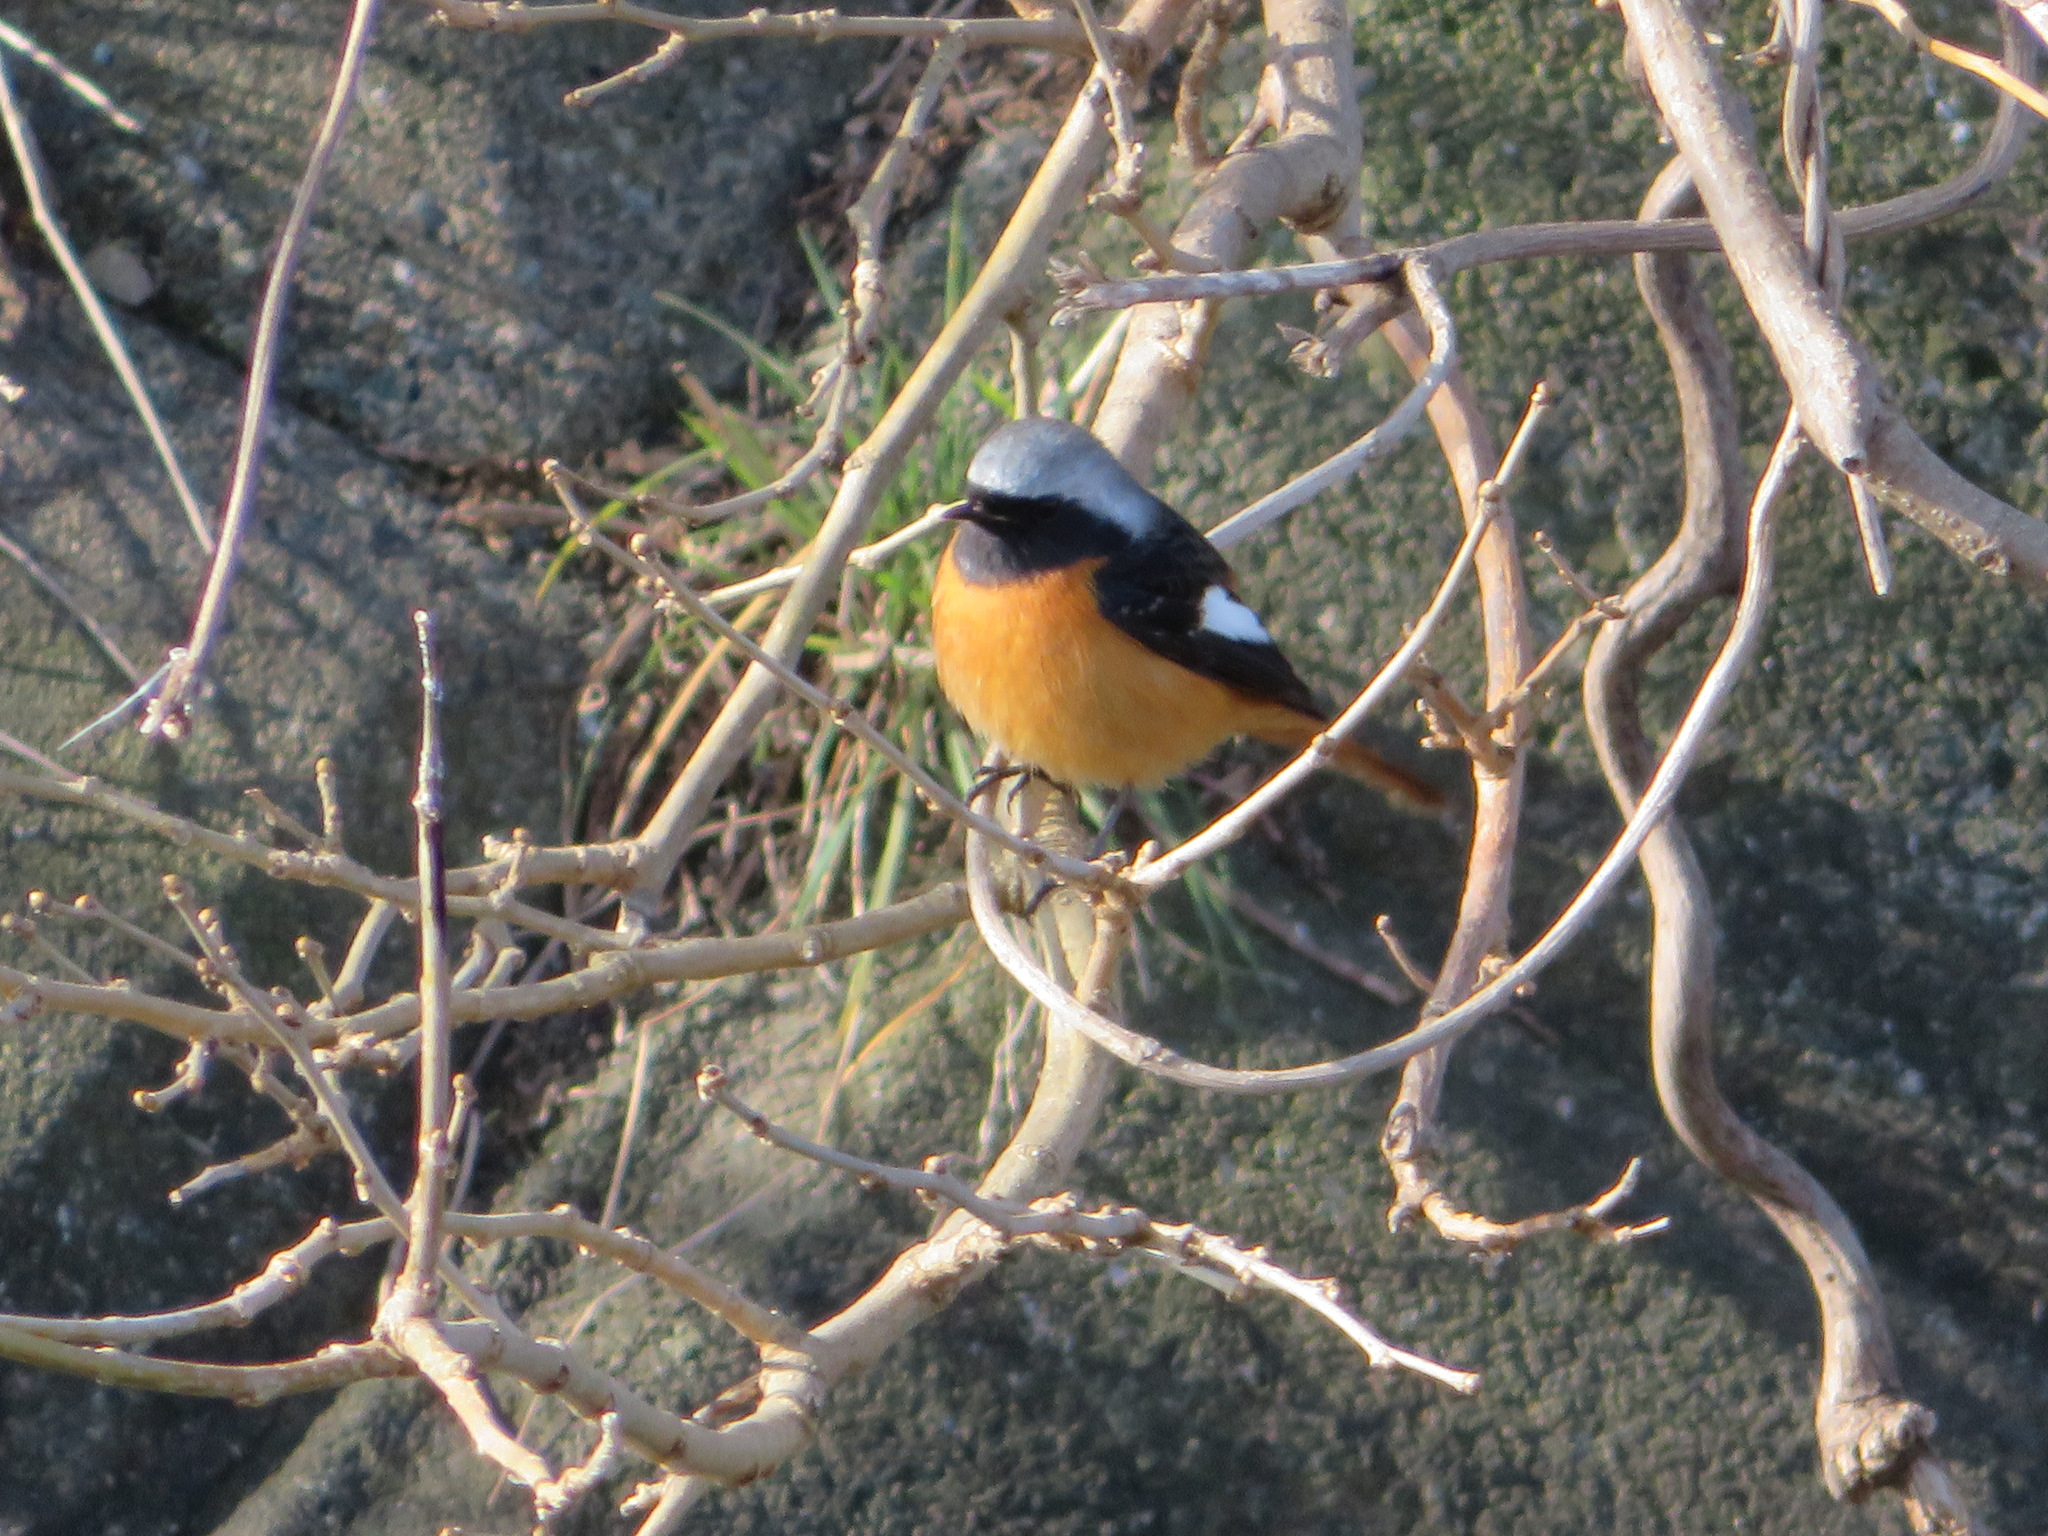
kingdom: Animalia
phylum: Chordata
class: Aves
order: Passeriformes
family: Muscicapidae
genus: Phoenicurus
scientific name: Phoenicurus auroreus
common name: Daurian redstart
